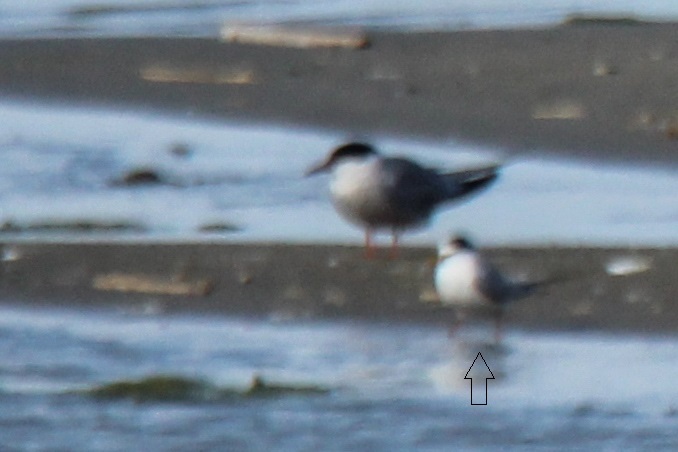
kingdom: Animalia
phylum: Chordata
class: Aves
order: Charadriiformes
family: Laridae
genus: Sternula
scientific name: Sternula albifrons
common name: Little tern
